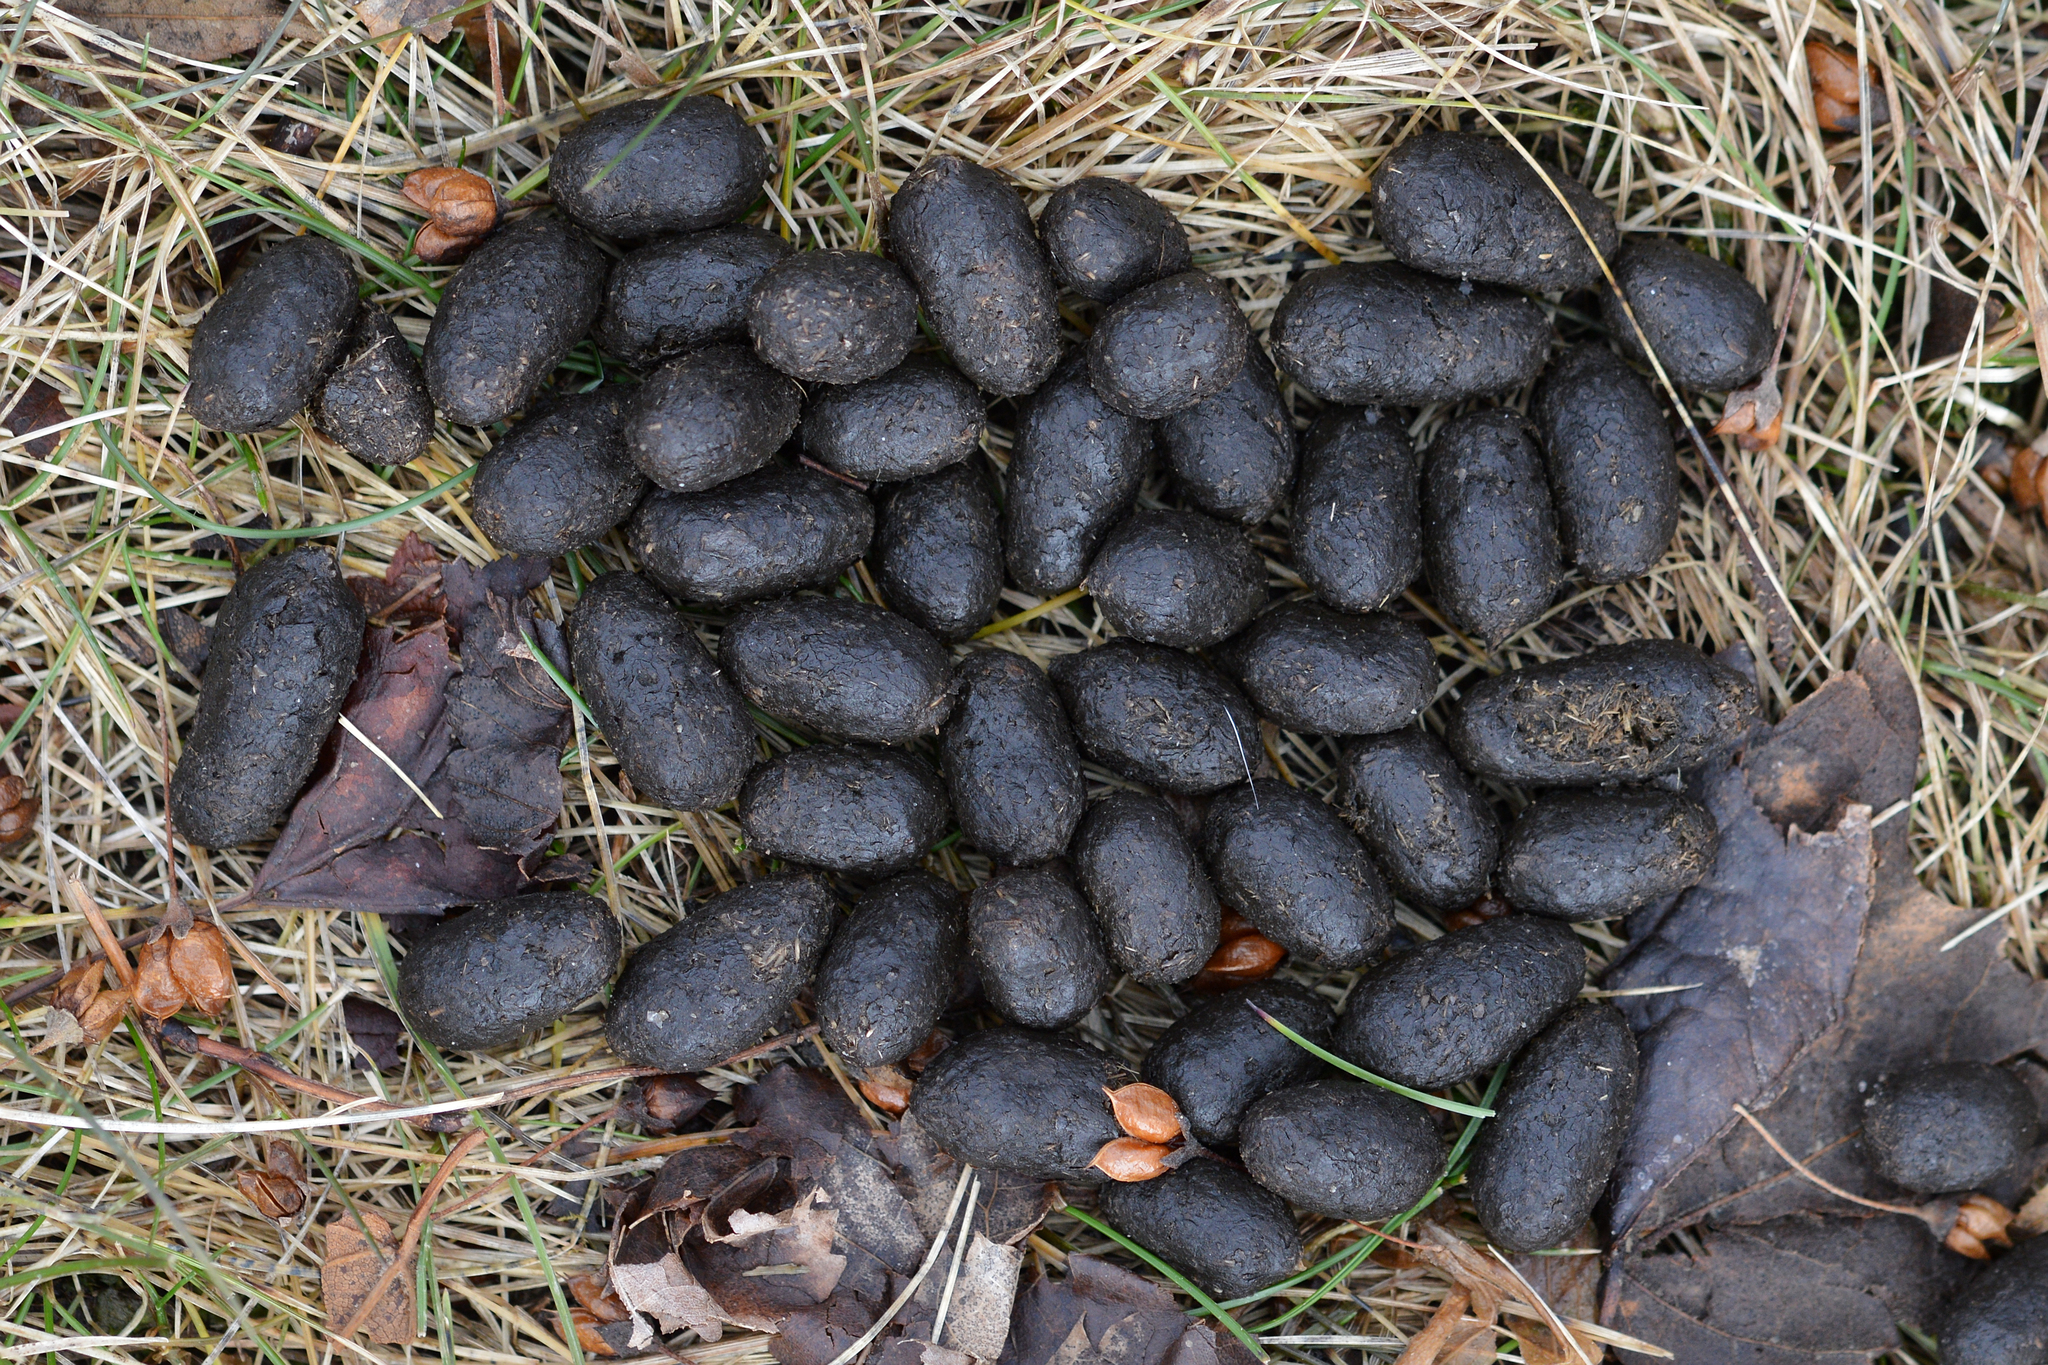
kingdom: Animalia
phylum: Chordata
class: Mammalia
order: Artiodactyla
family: Cervidae
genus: Odocoileus
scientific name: Odocoileus virginianus
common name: White-tailed deer
